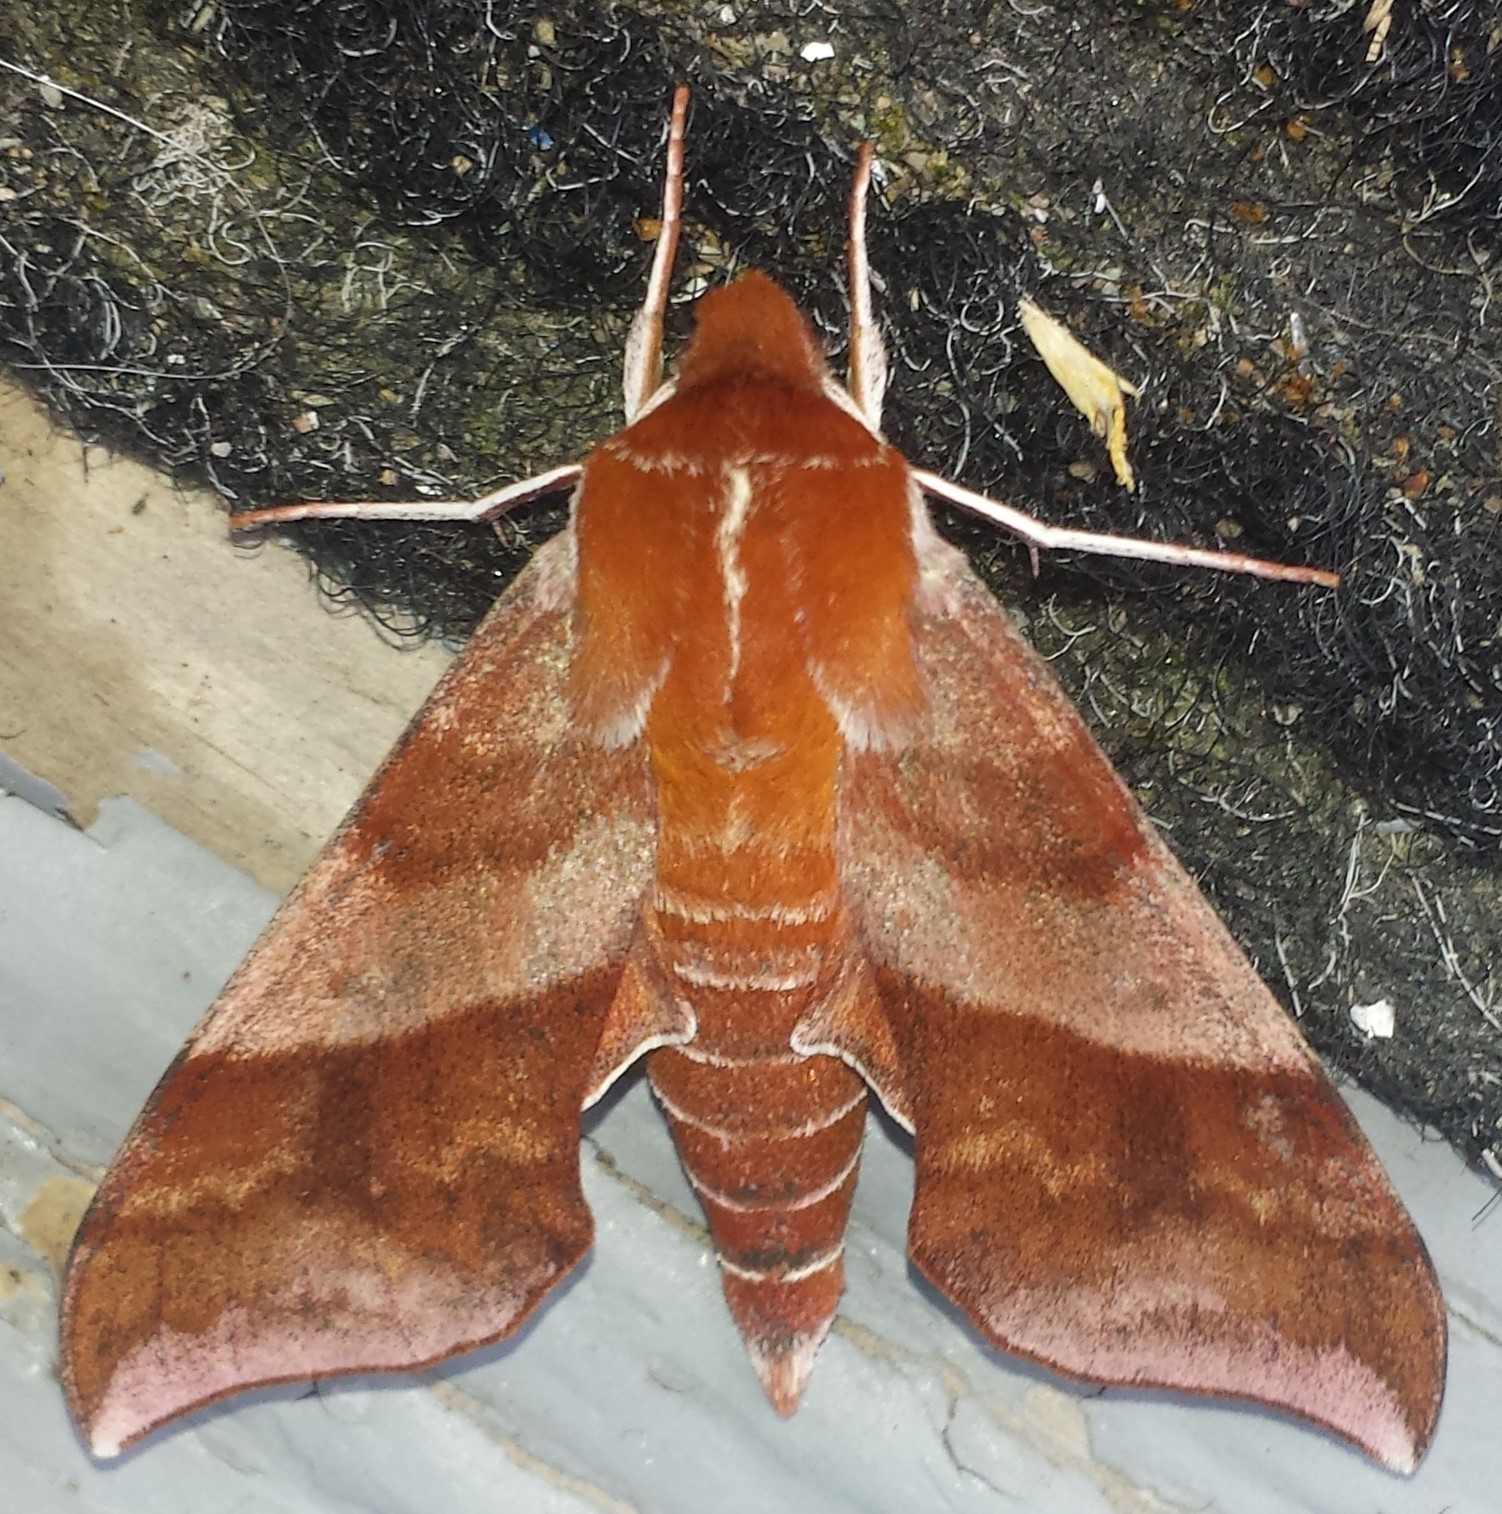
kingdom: Animalia
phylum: Arthropoda
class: Insecta
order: Lepidoptera
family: Sphingidae
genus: Darapsa
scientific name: Darapsa choerilus
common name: Azalea sphinx
